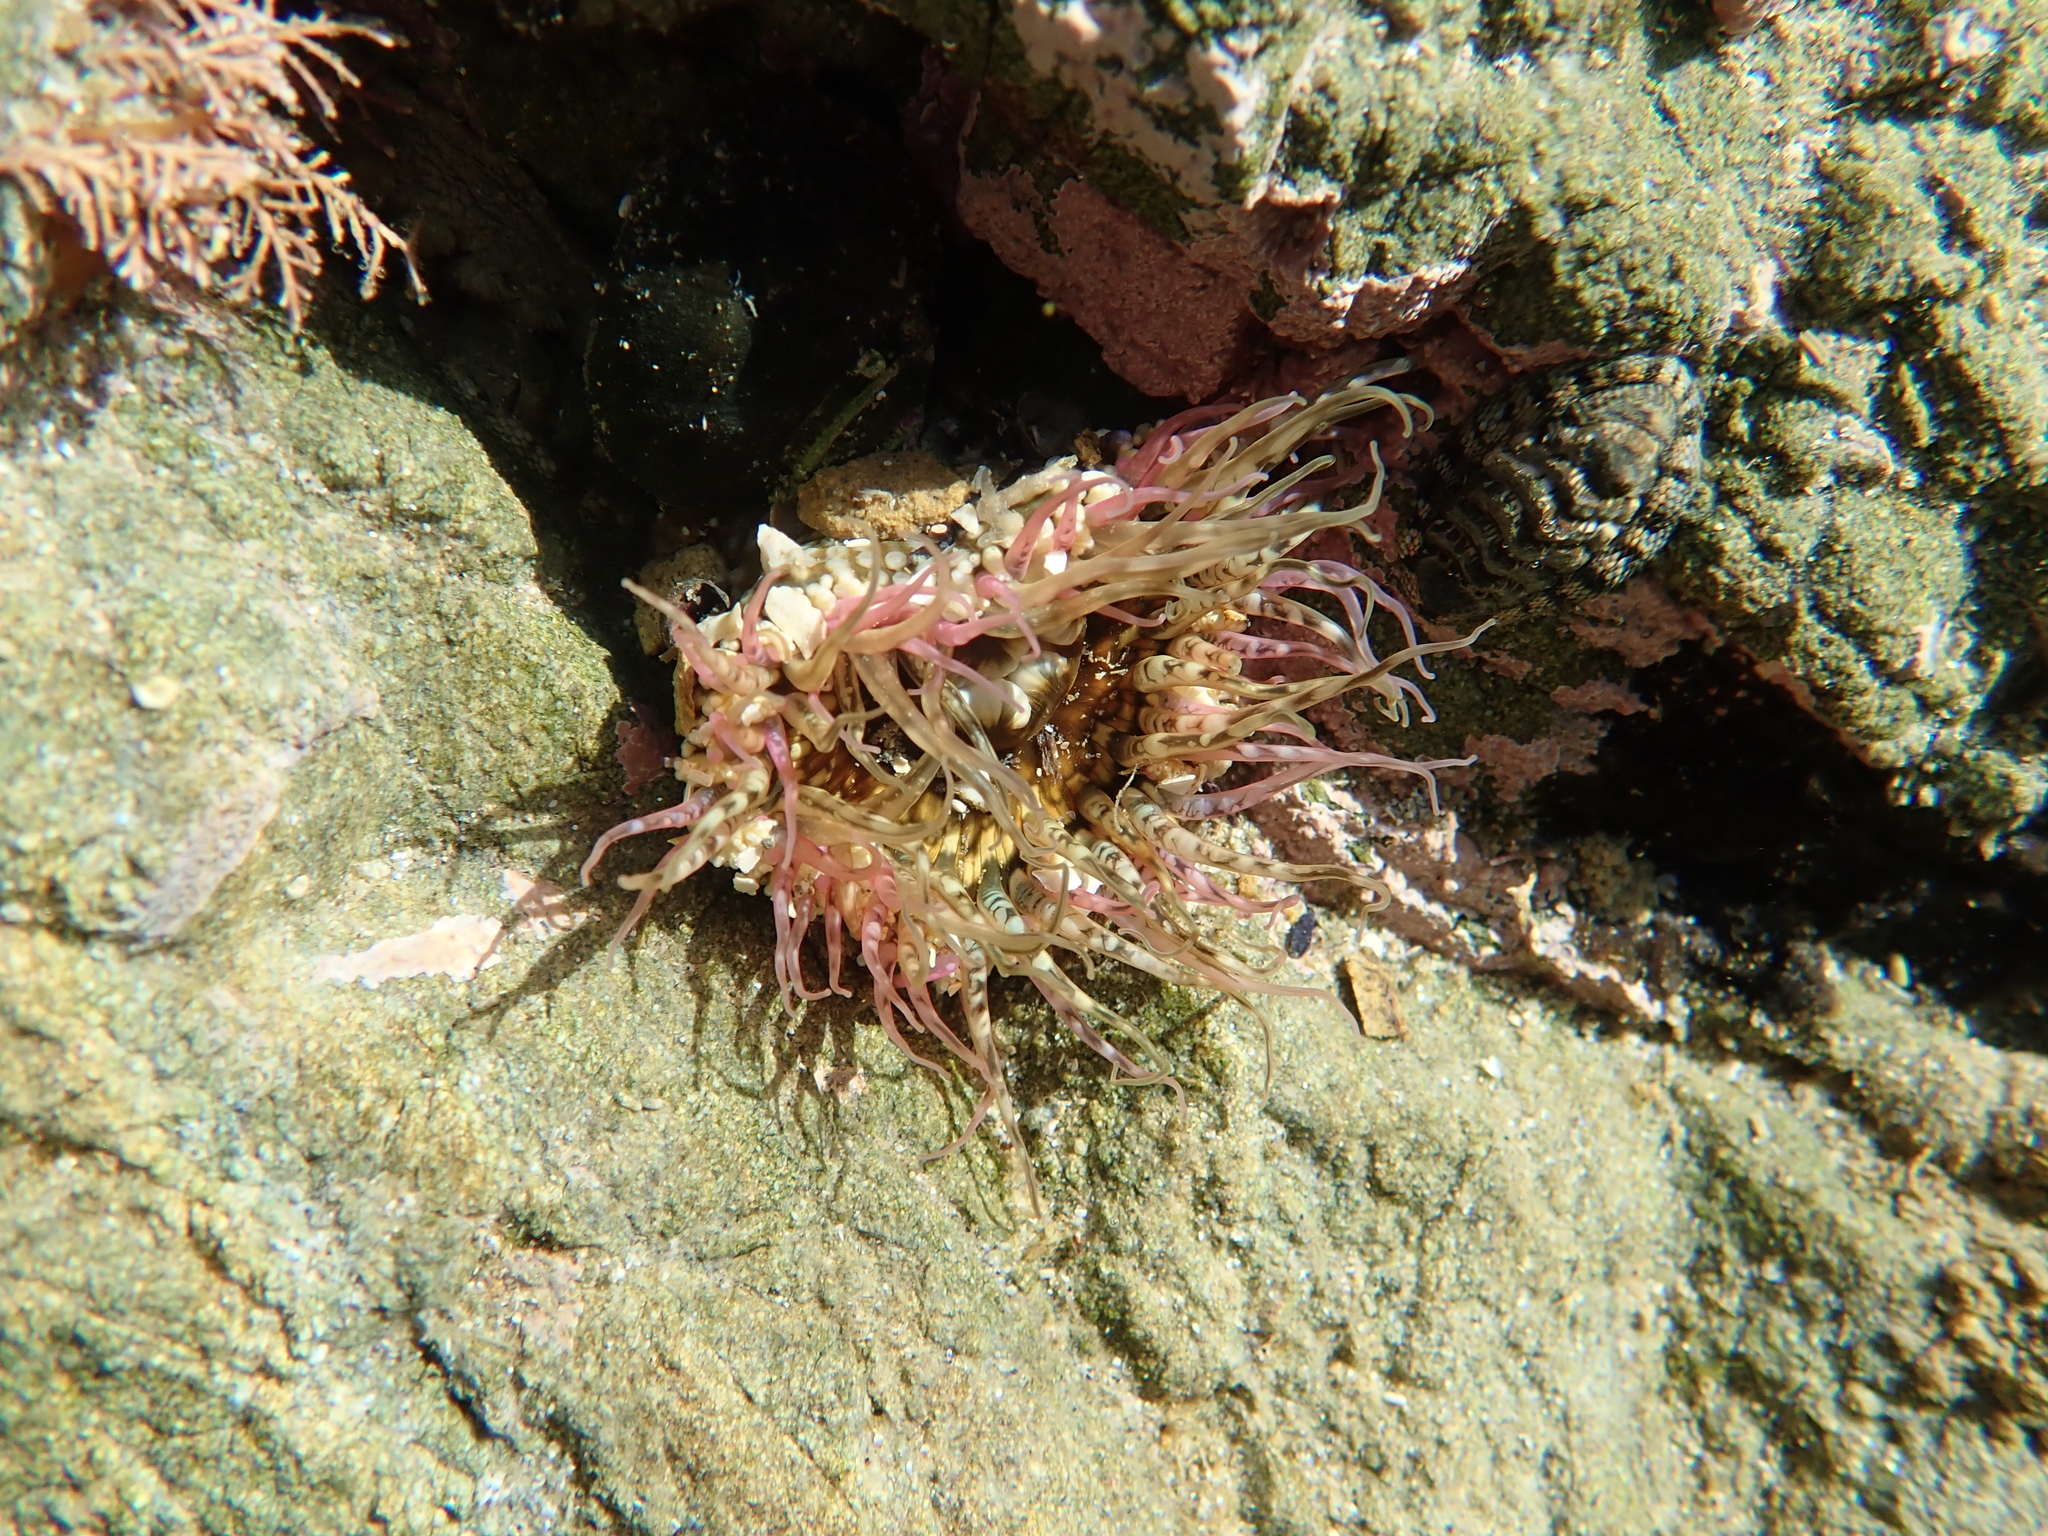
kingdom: Animalia
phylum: Cnidaria
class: Anthozoa
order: Actiniaria
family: Actiniidae
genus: Oulactis
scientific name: Oulactis muscosa
